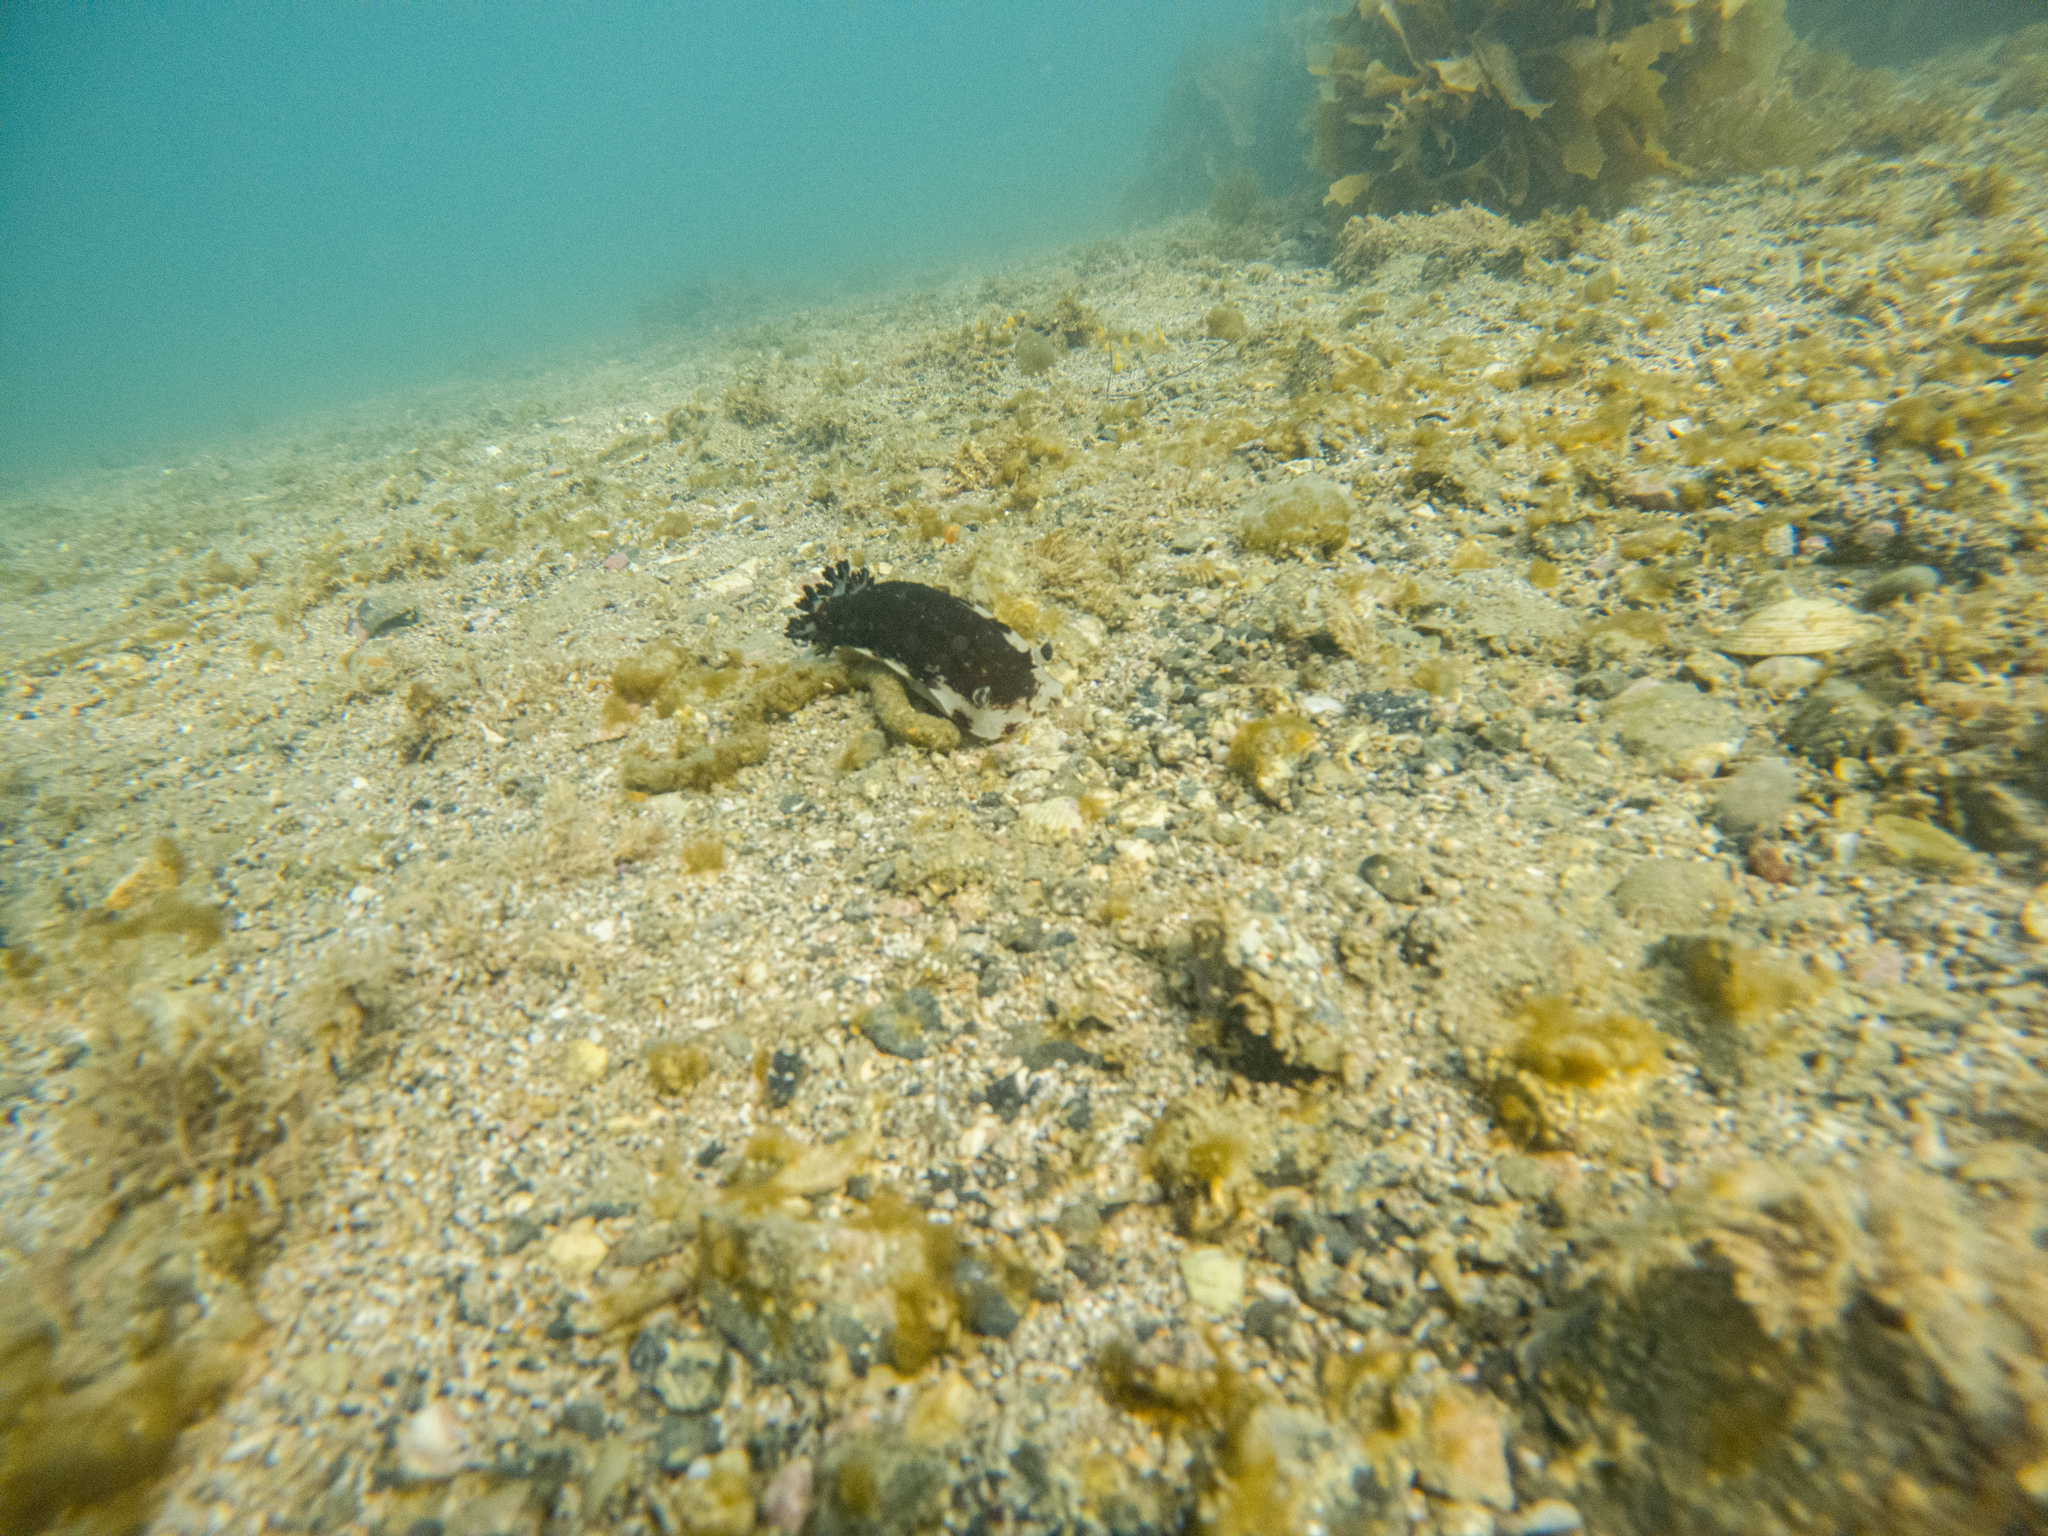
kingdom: Animalia
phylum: Mollusca
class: Gastropoda
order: Nudibranchia
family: Dorididae
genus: Aphelodoris
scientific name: Aphelodoris luctuosa
